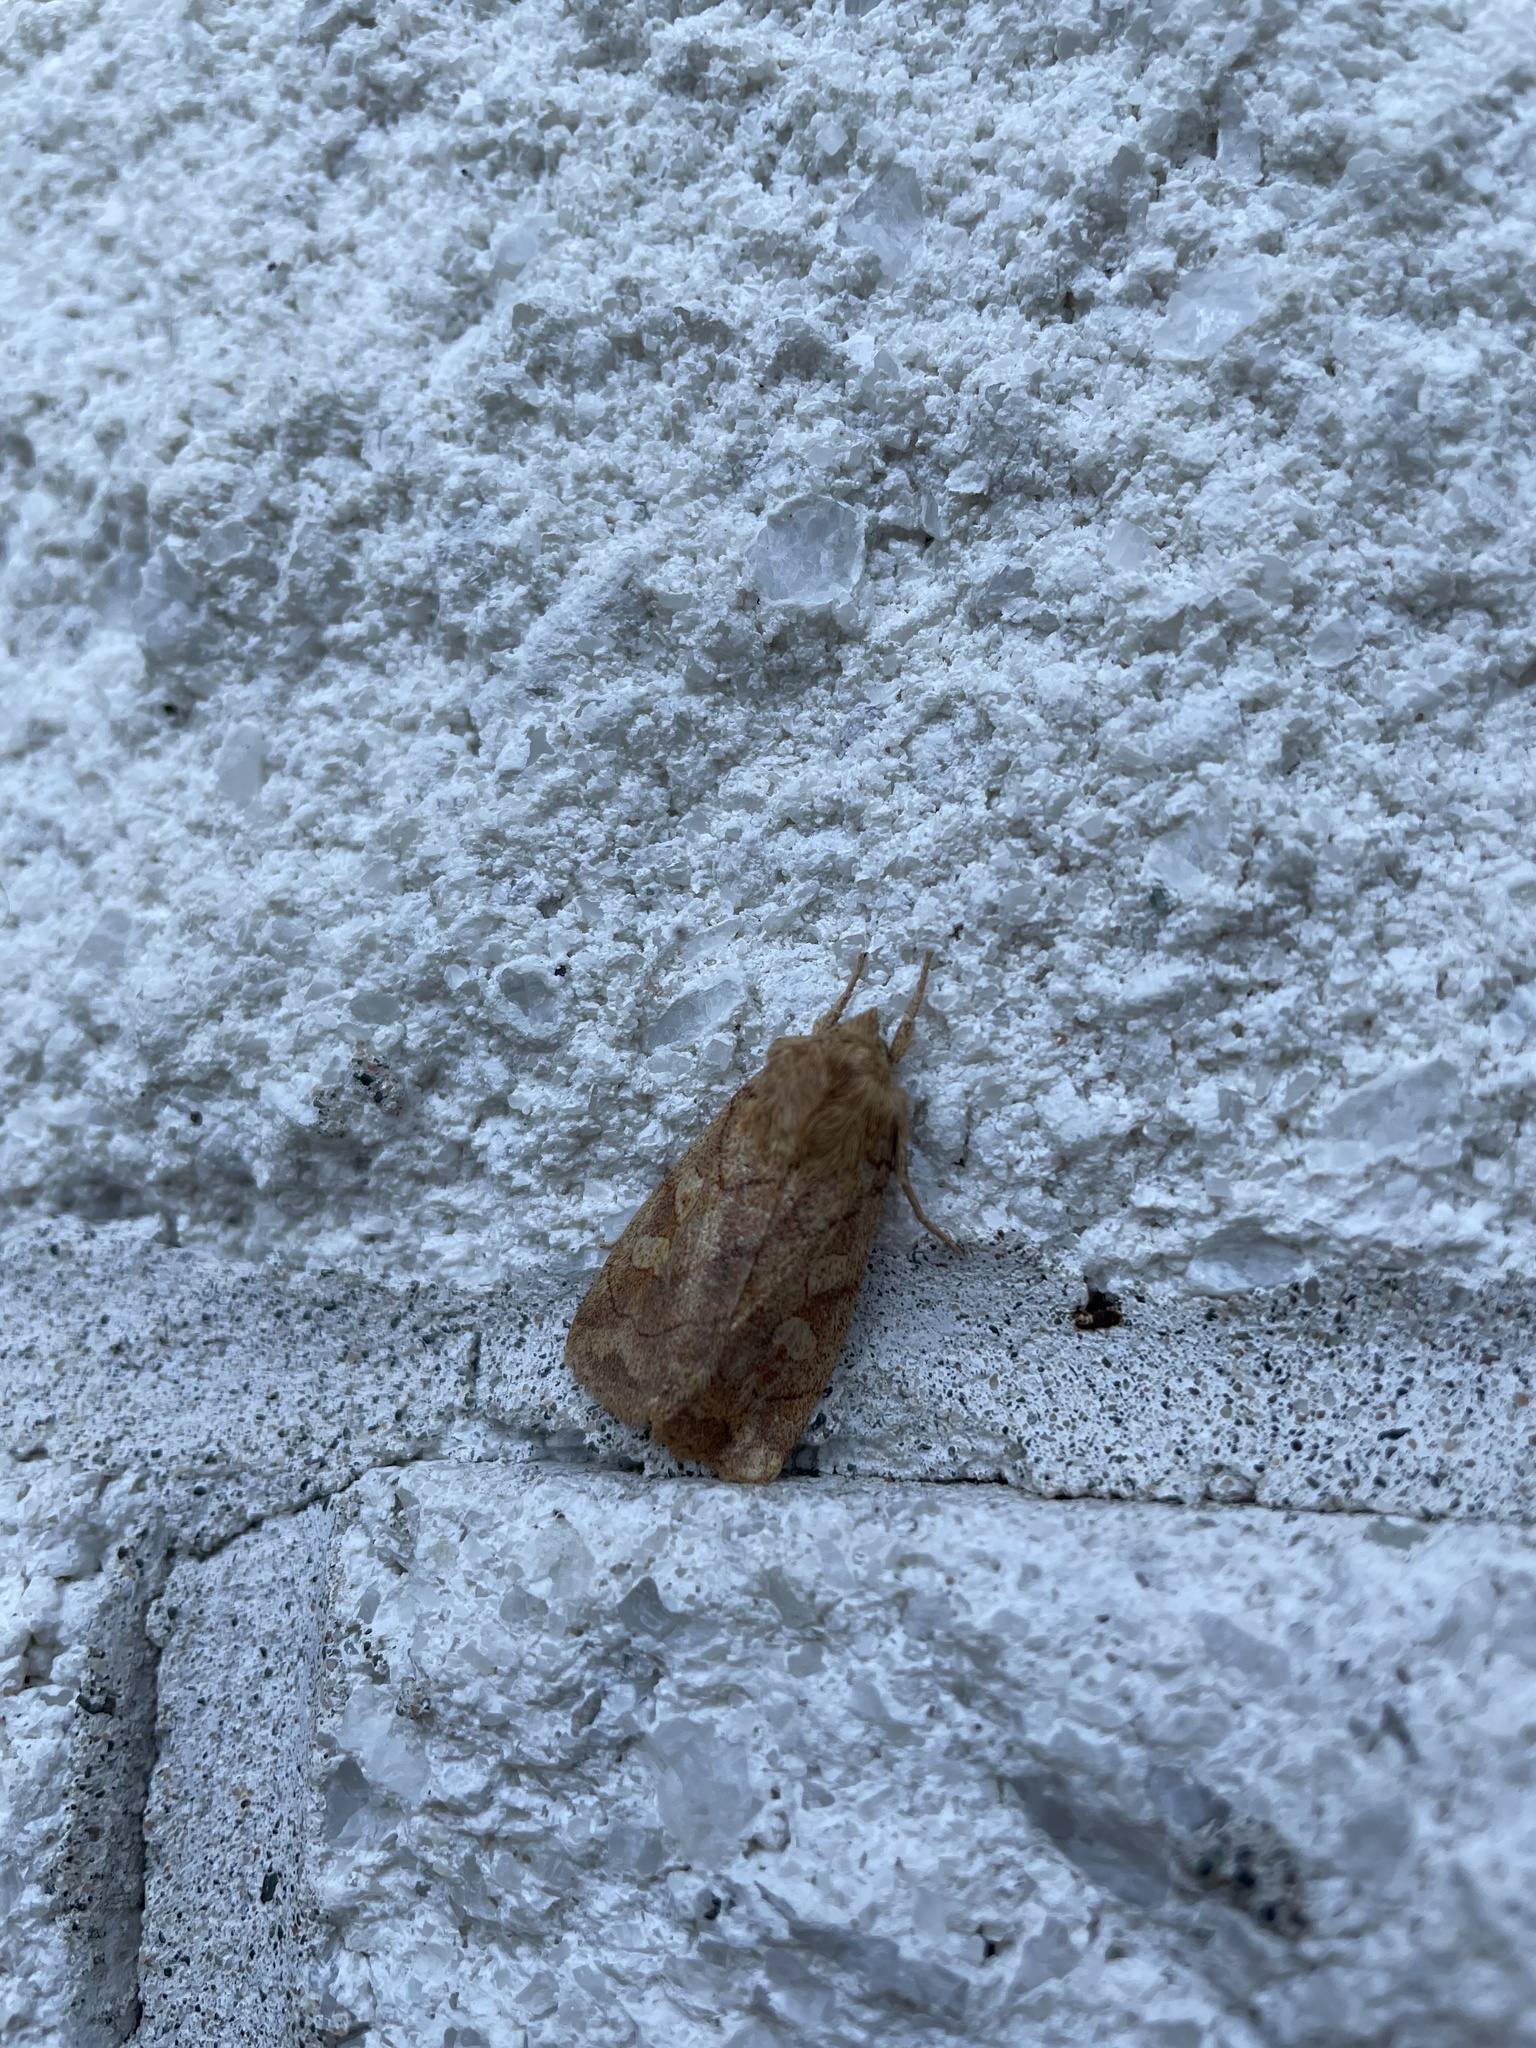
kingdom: Animalia
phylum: Arthropoda
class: Insecta
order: Lepidoptera
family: Noctuidae
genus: Enargia
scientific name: Enargia decolor
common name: Aspen twoleaf tier moth
